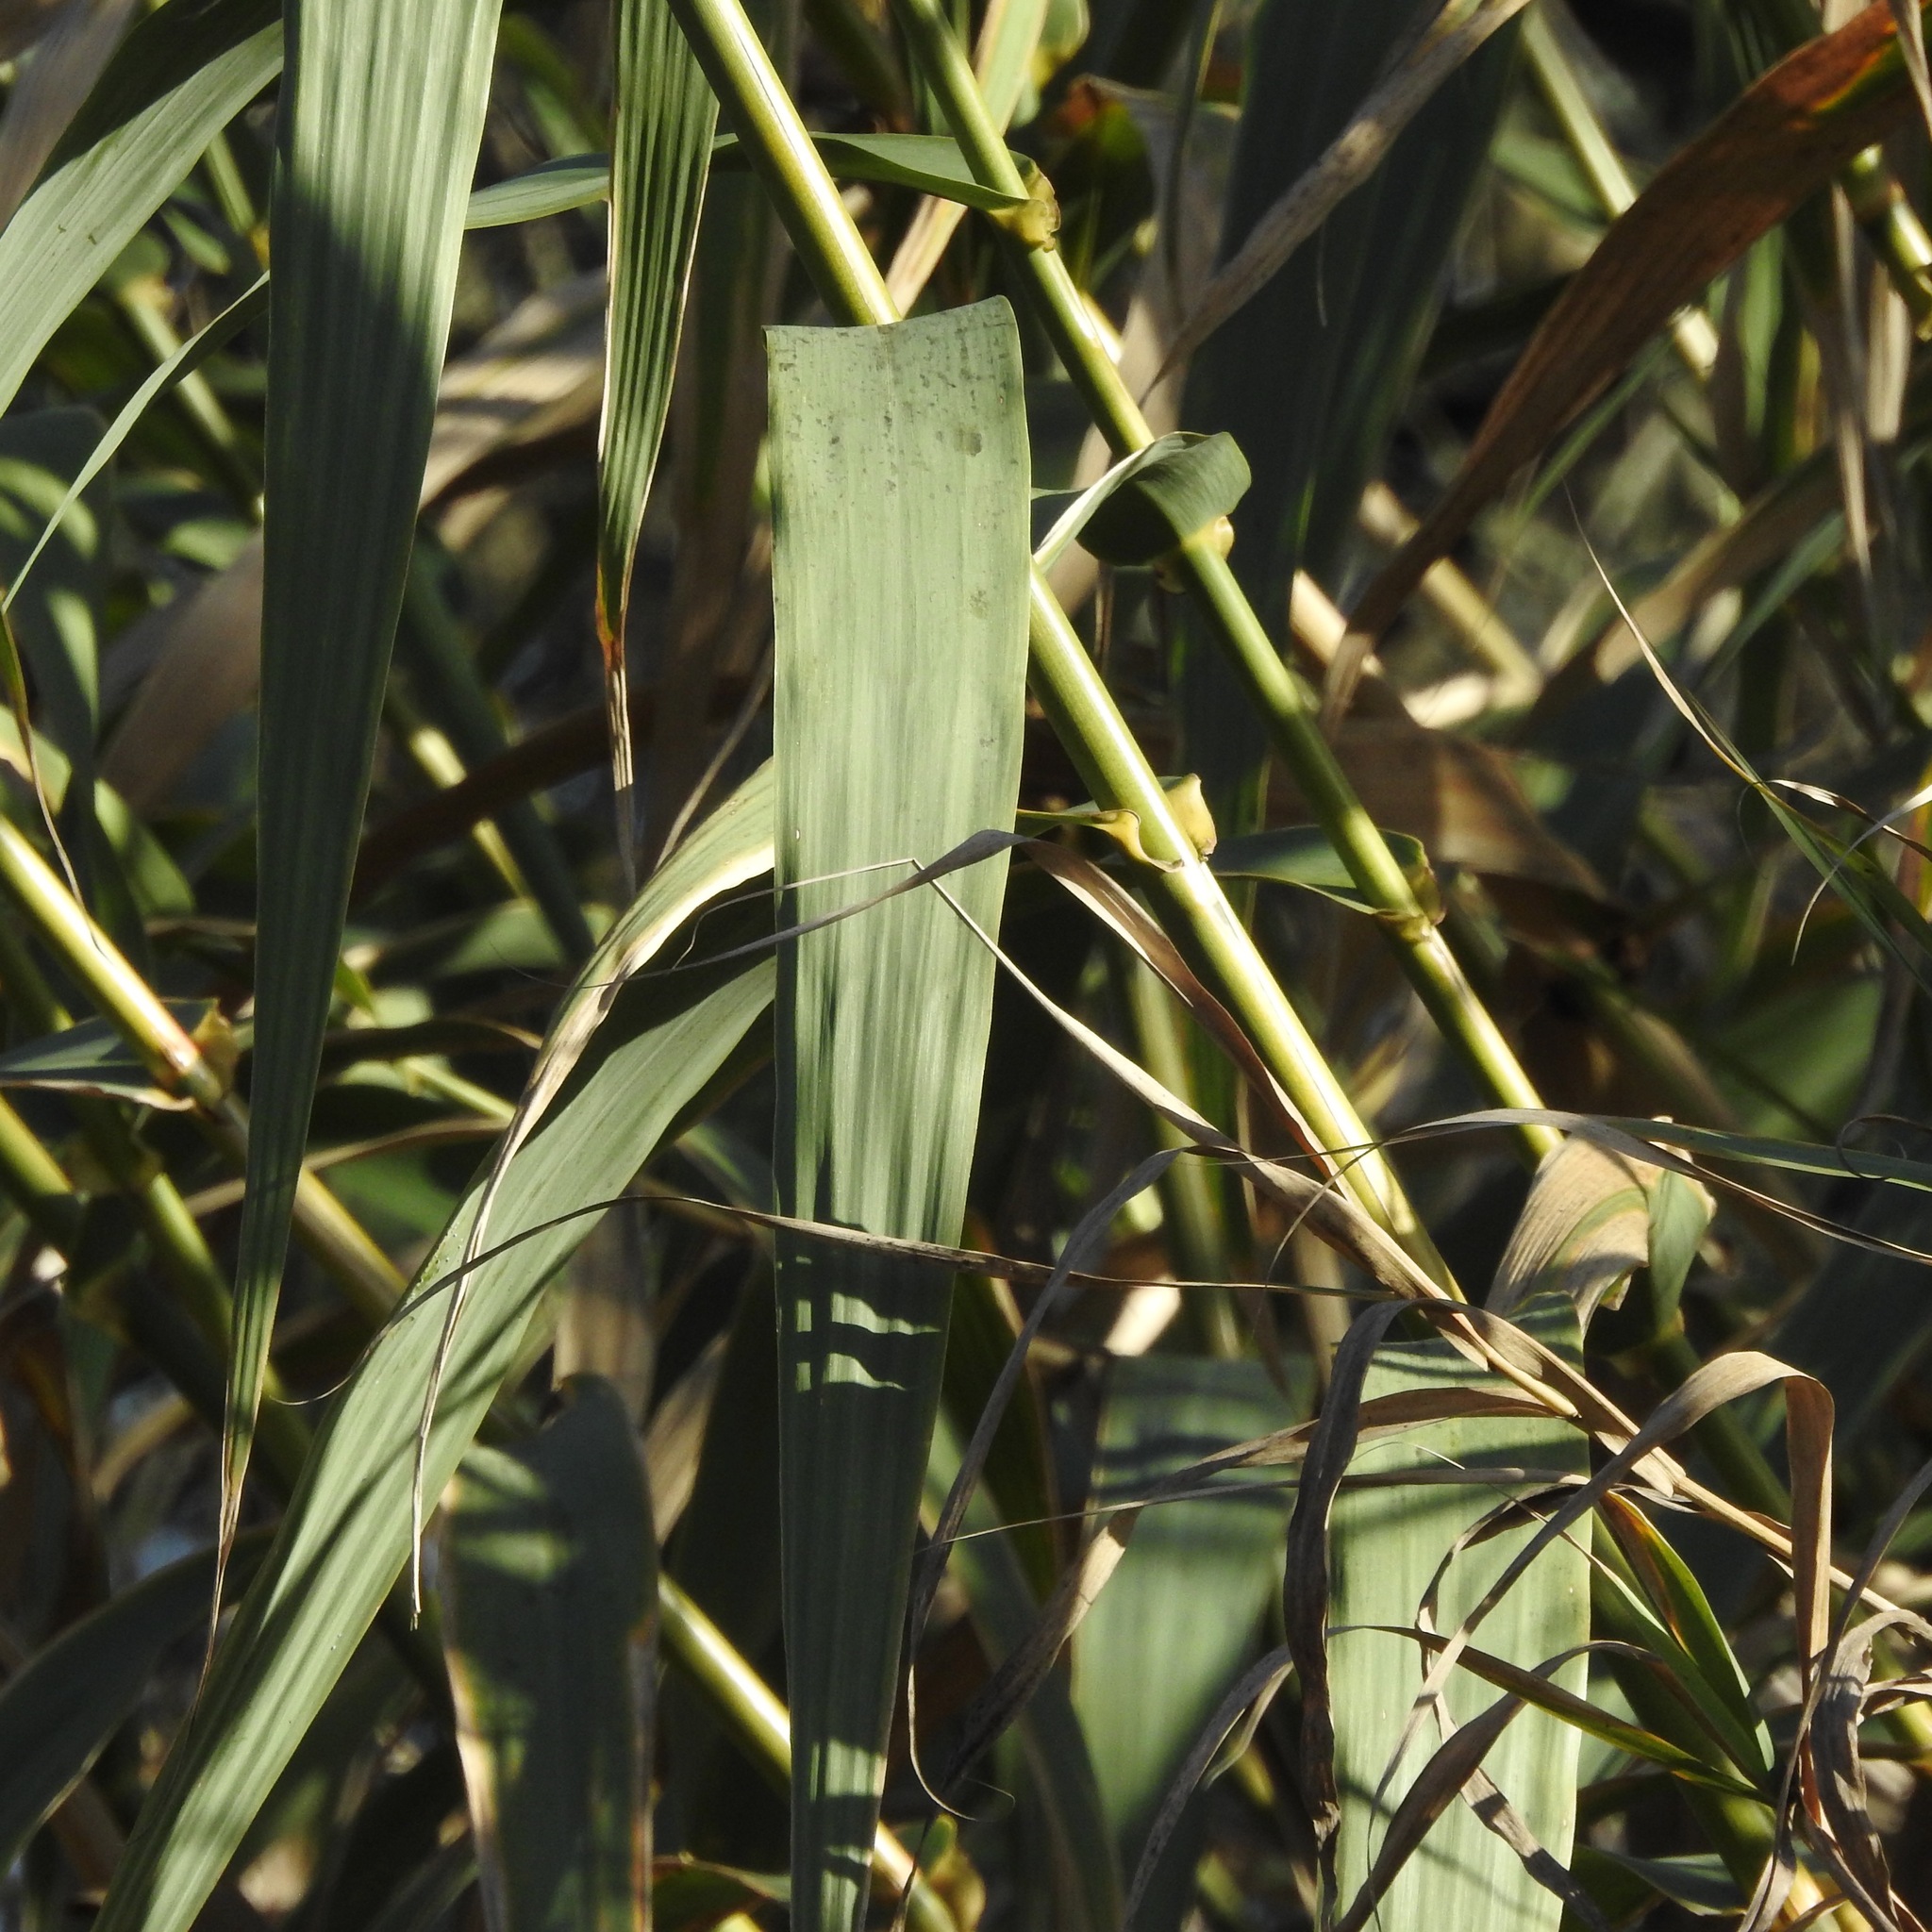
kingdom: Plantae
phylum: Tracheophyta
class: Liliopsida
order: Poales
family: Poaceae
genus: Arundo
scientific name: Arundo donax
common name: Giant reed
